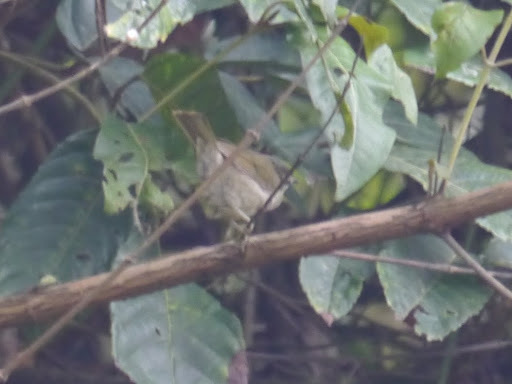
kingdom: Animalia
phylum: Chordata
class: Aves
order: Passeriformes
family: Cettiidae
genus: Hylia
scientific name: Hylia prasina
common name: Green hylia
